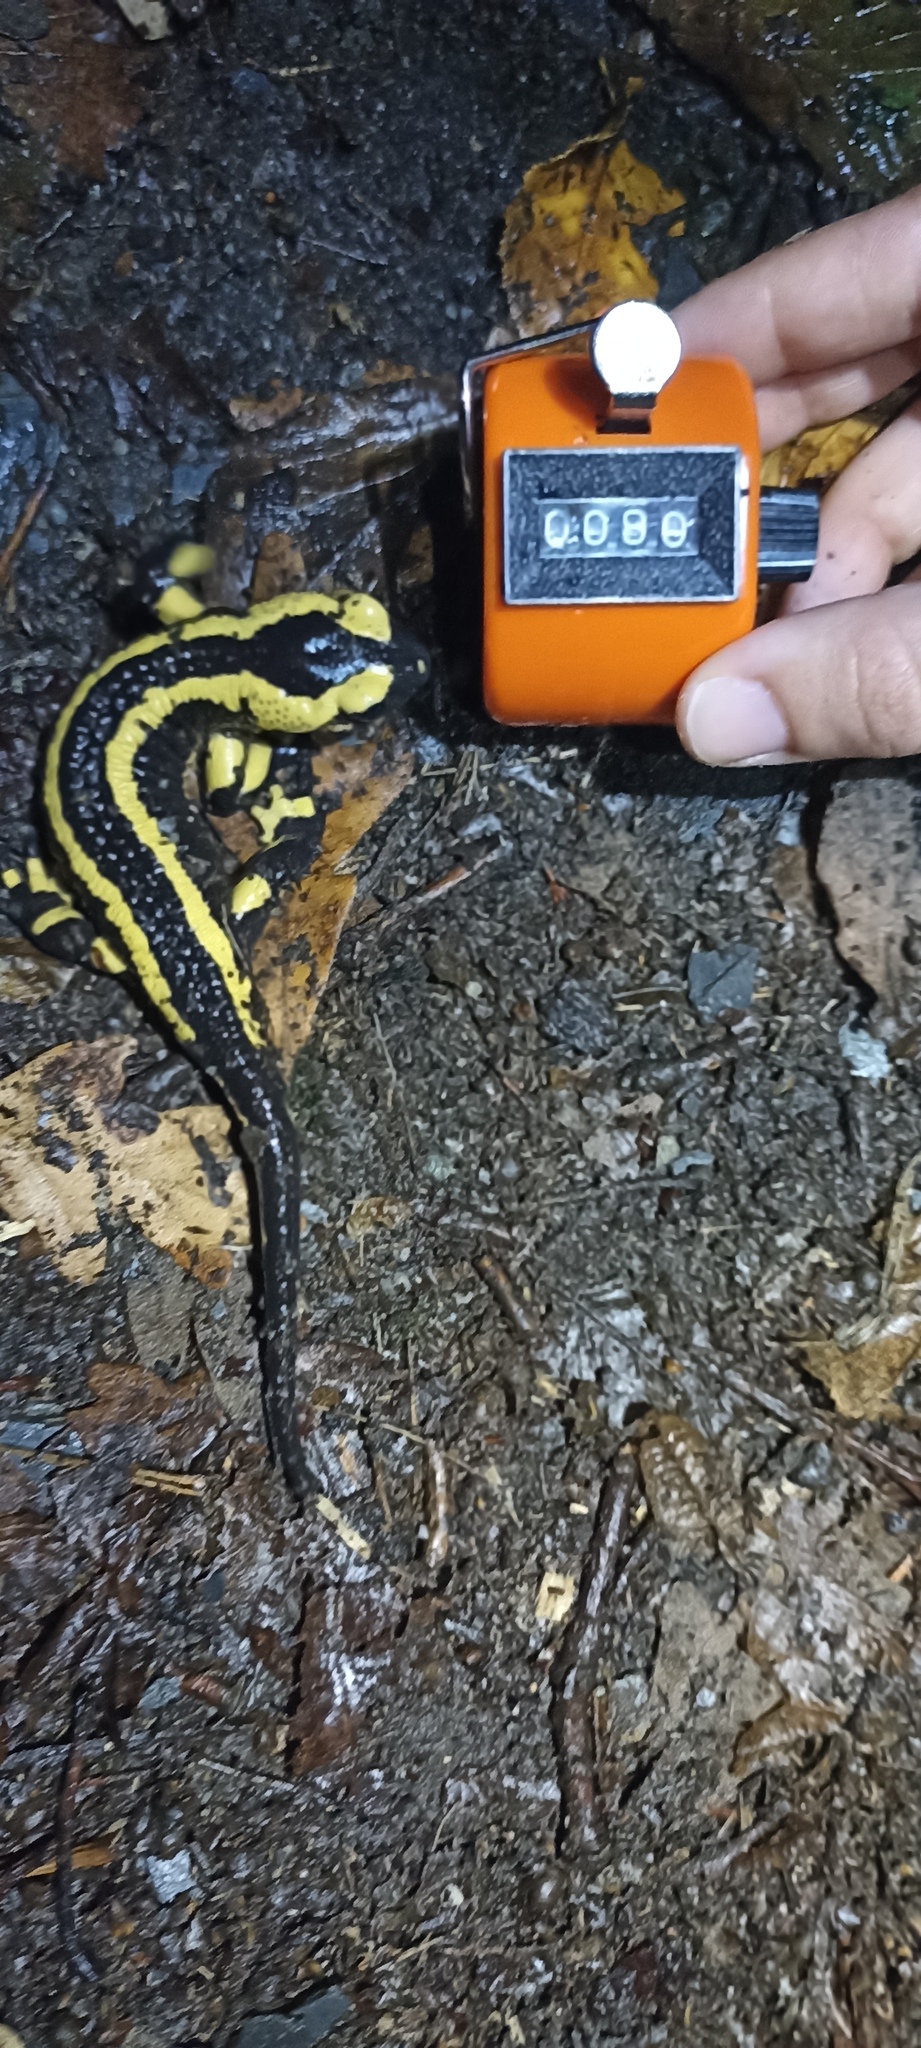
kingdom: Animalia
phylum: Chordata
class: Amphibia
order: Caudata
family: Salamandridae
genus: Salamandra
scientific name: Salamandra salamandra
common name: Fire salamander
